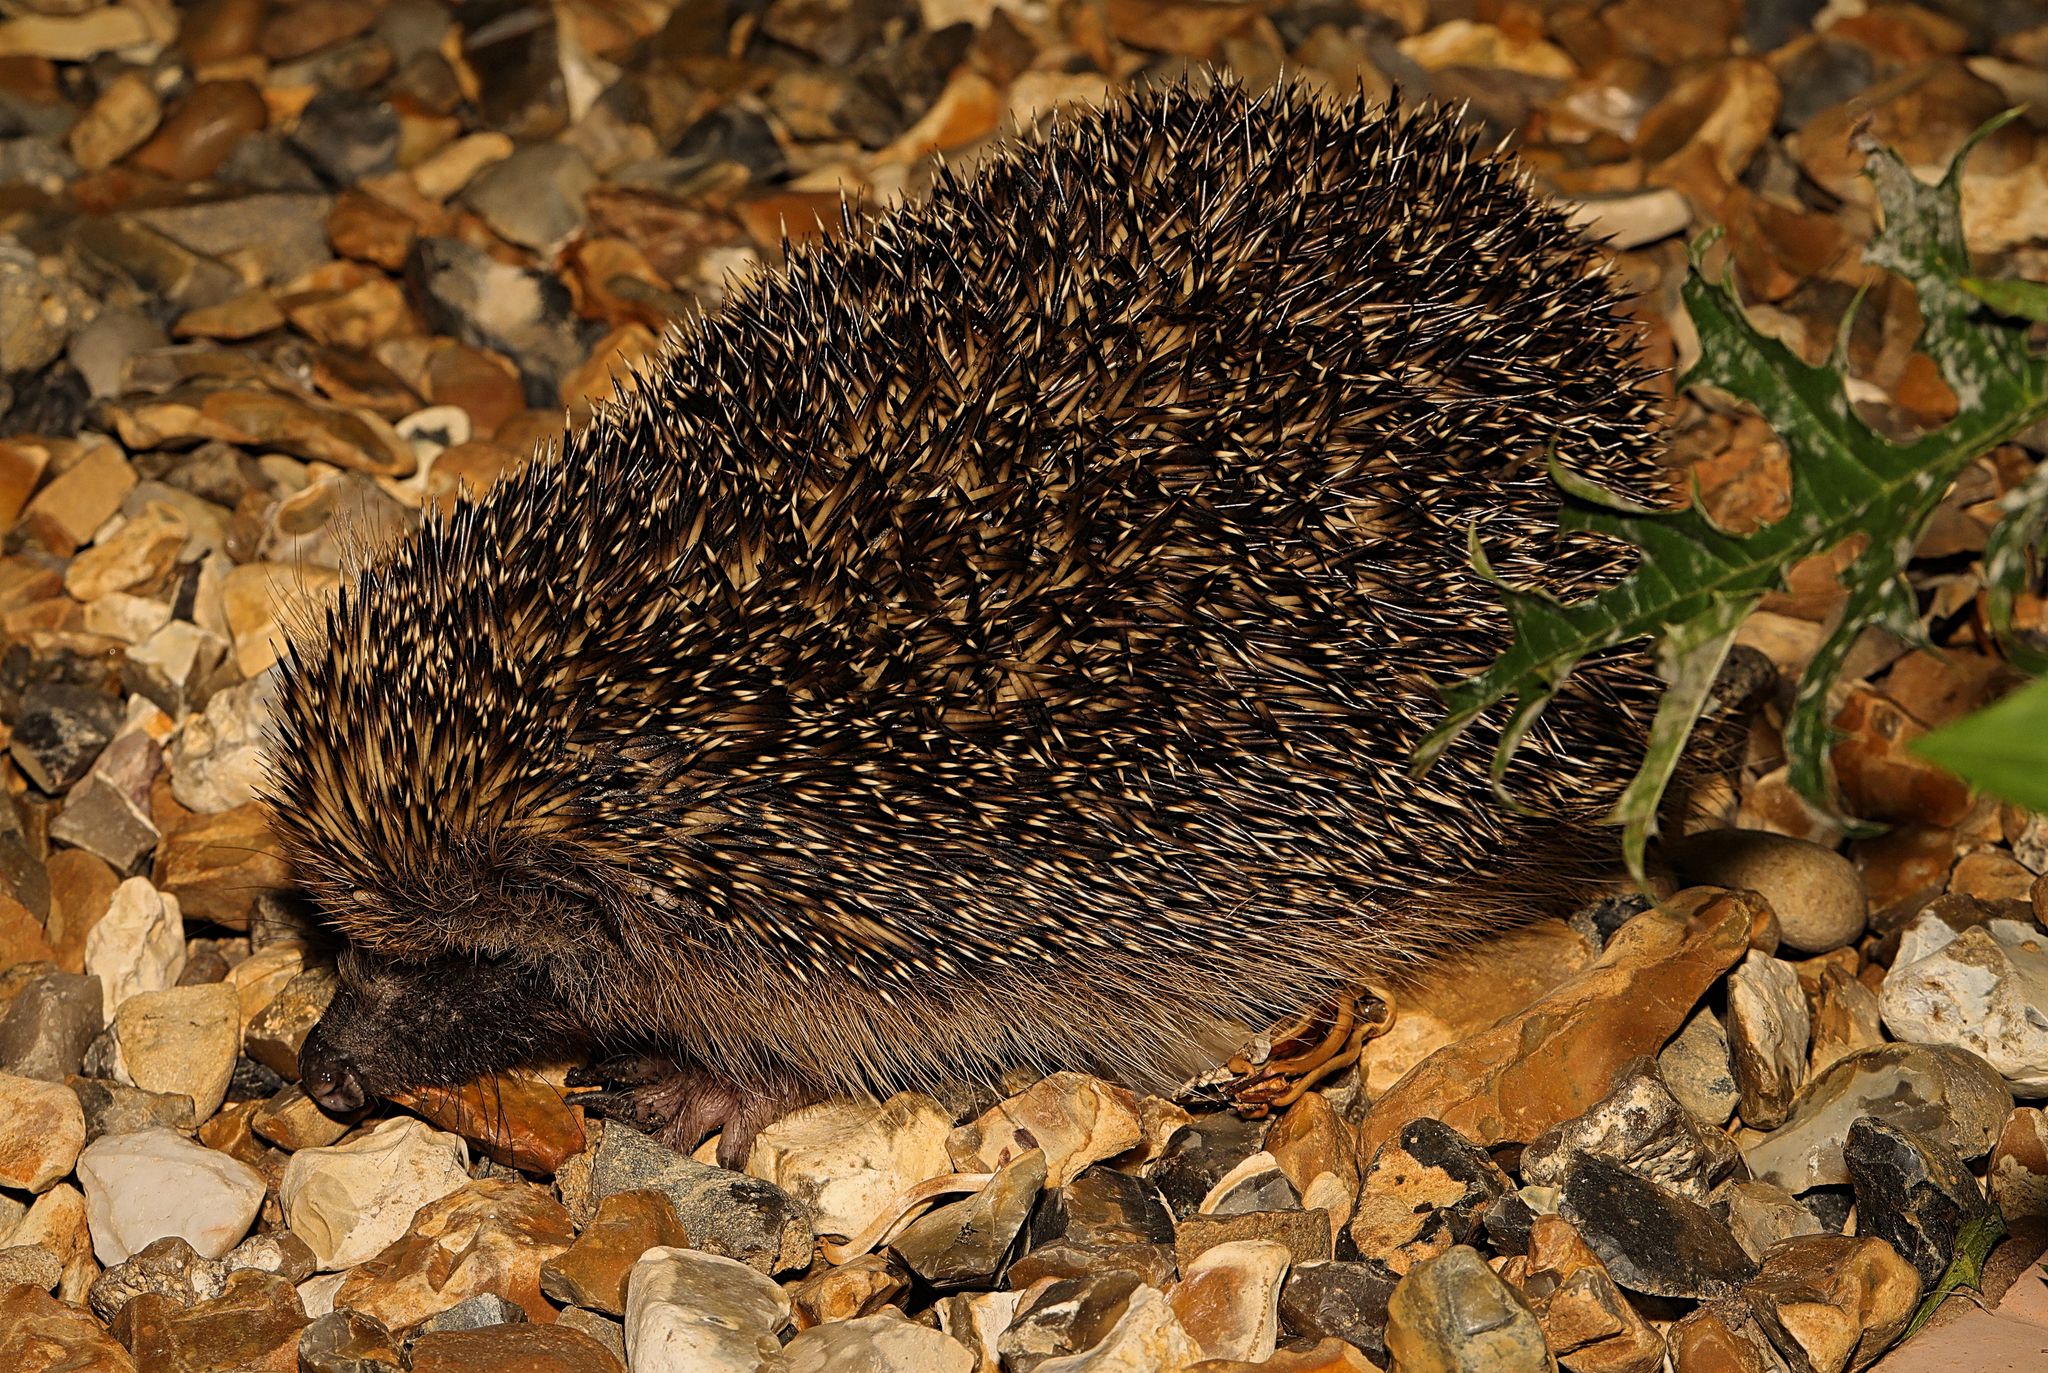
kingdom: Animalia
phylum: Chordata
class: Mammalia
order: Erinaceomorpha
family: Erinaceidae
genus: Erinaceus
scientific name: Erinaceus europaeus
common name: West european hedgehog
